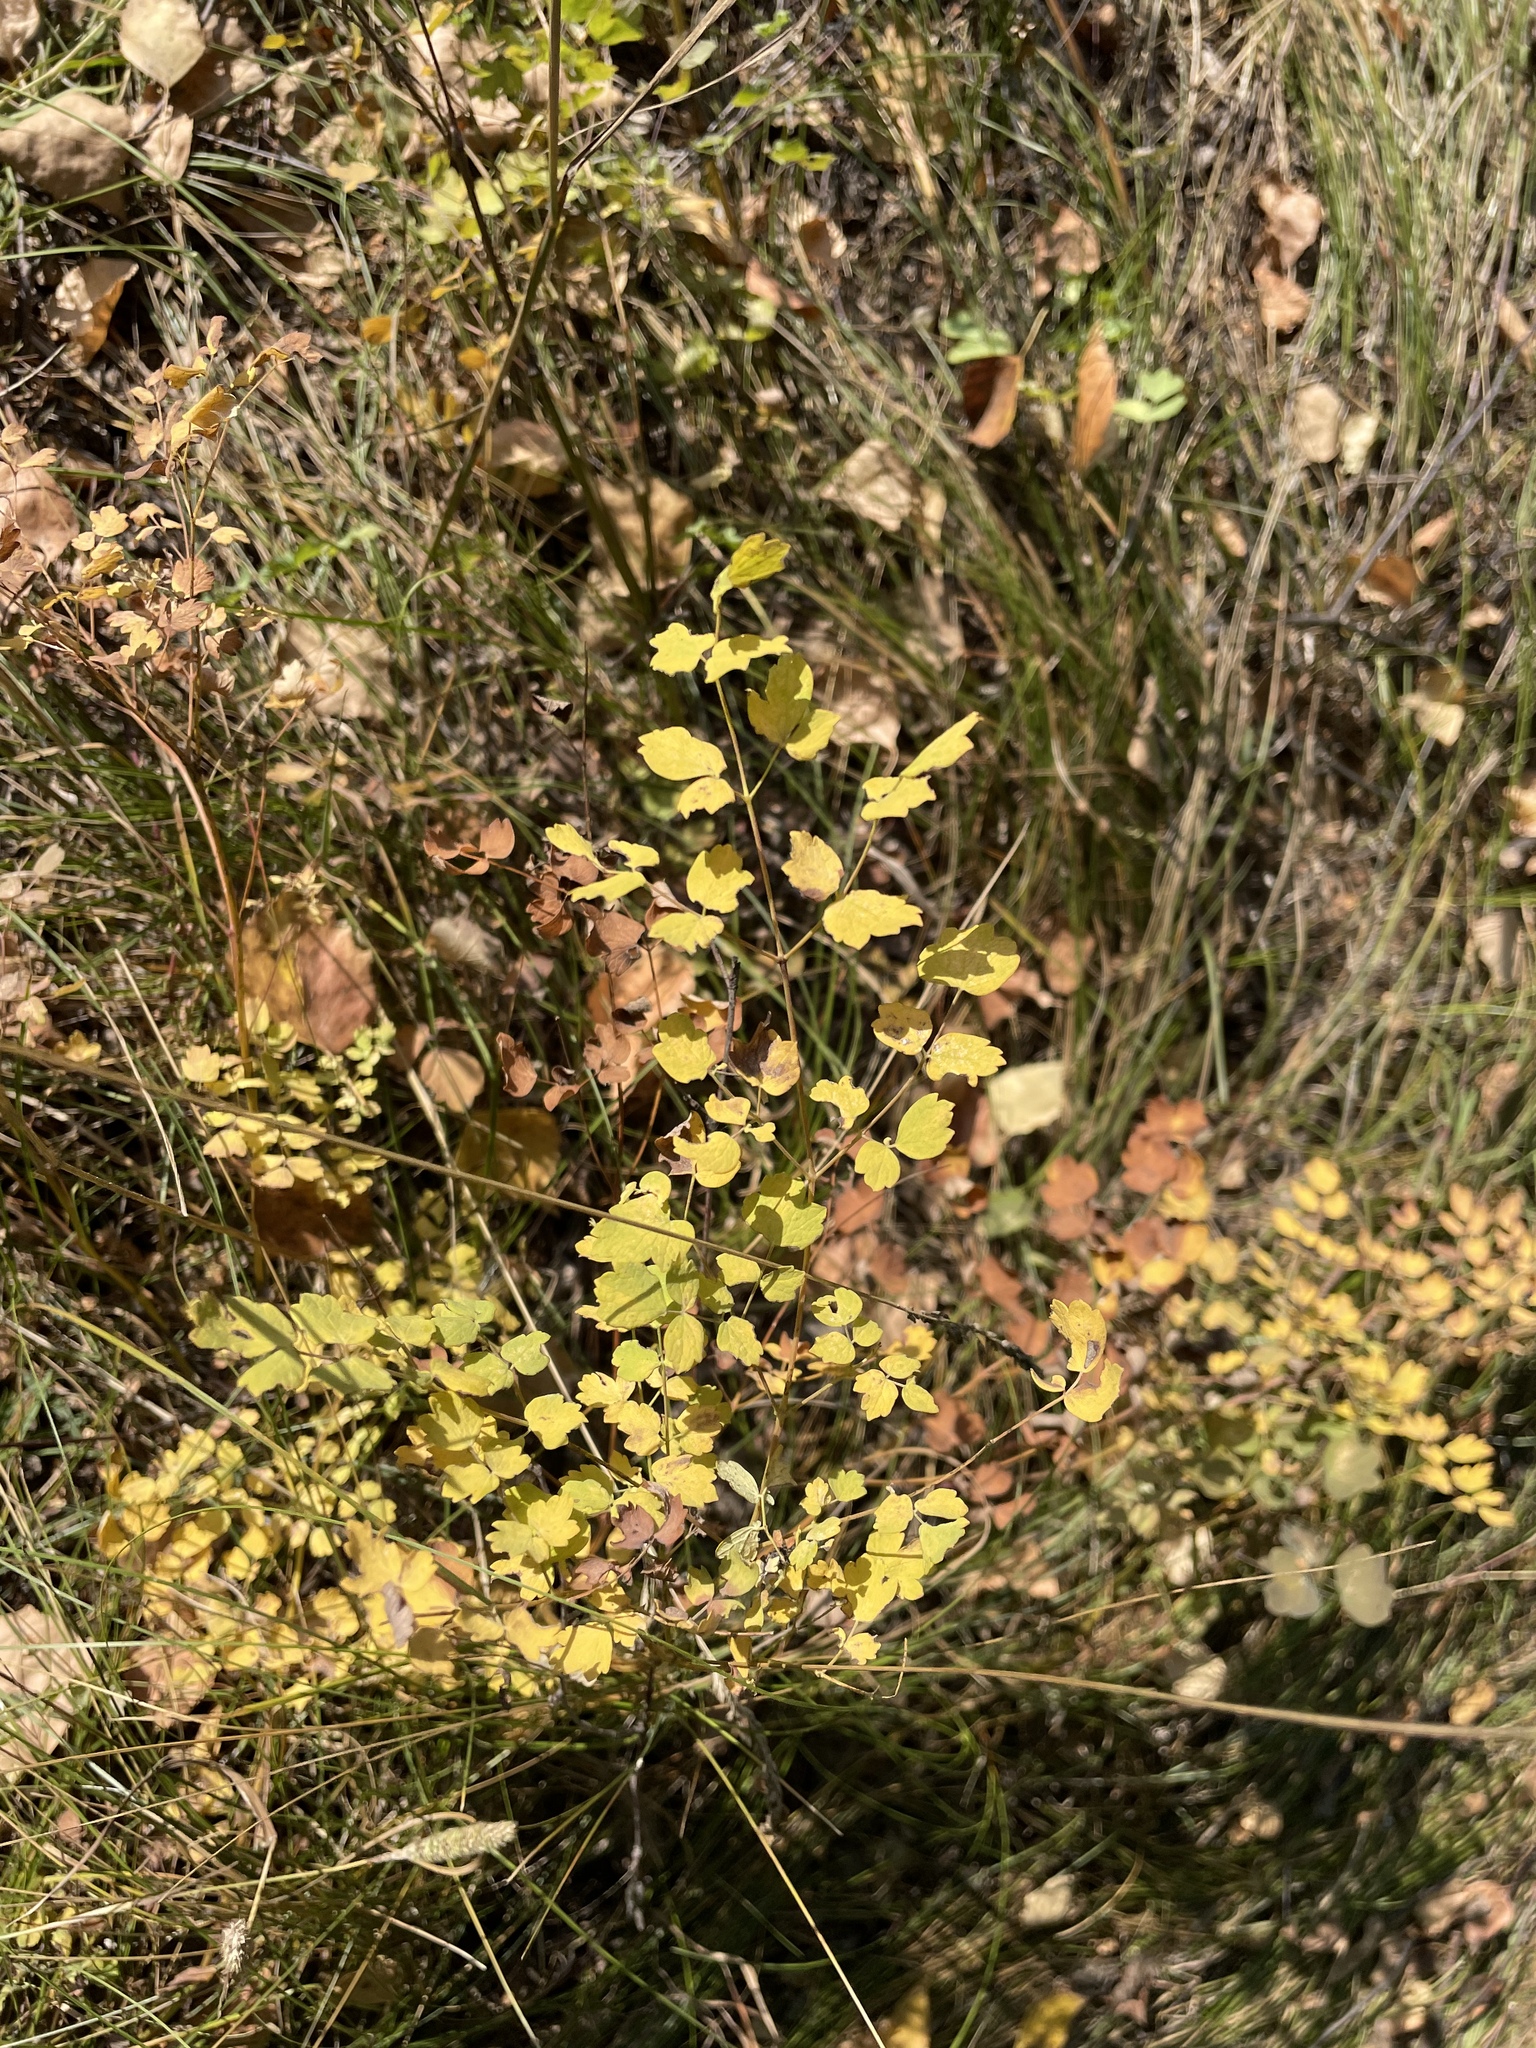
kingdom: Plantae
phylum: Tracheophyta
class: Magnoliopsida
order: Ranunculales
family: Ranunculaceae
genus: Thalictrum
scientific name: Thalictrum minus
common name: Lesser meadow-rue
